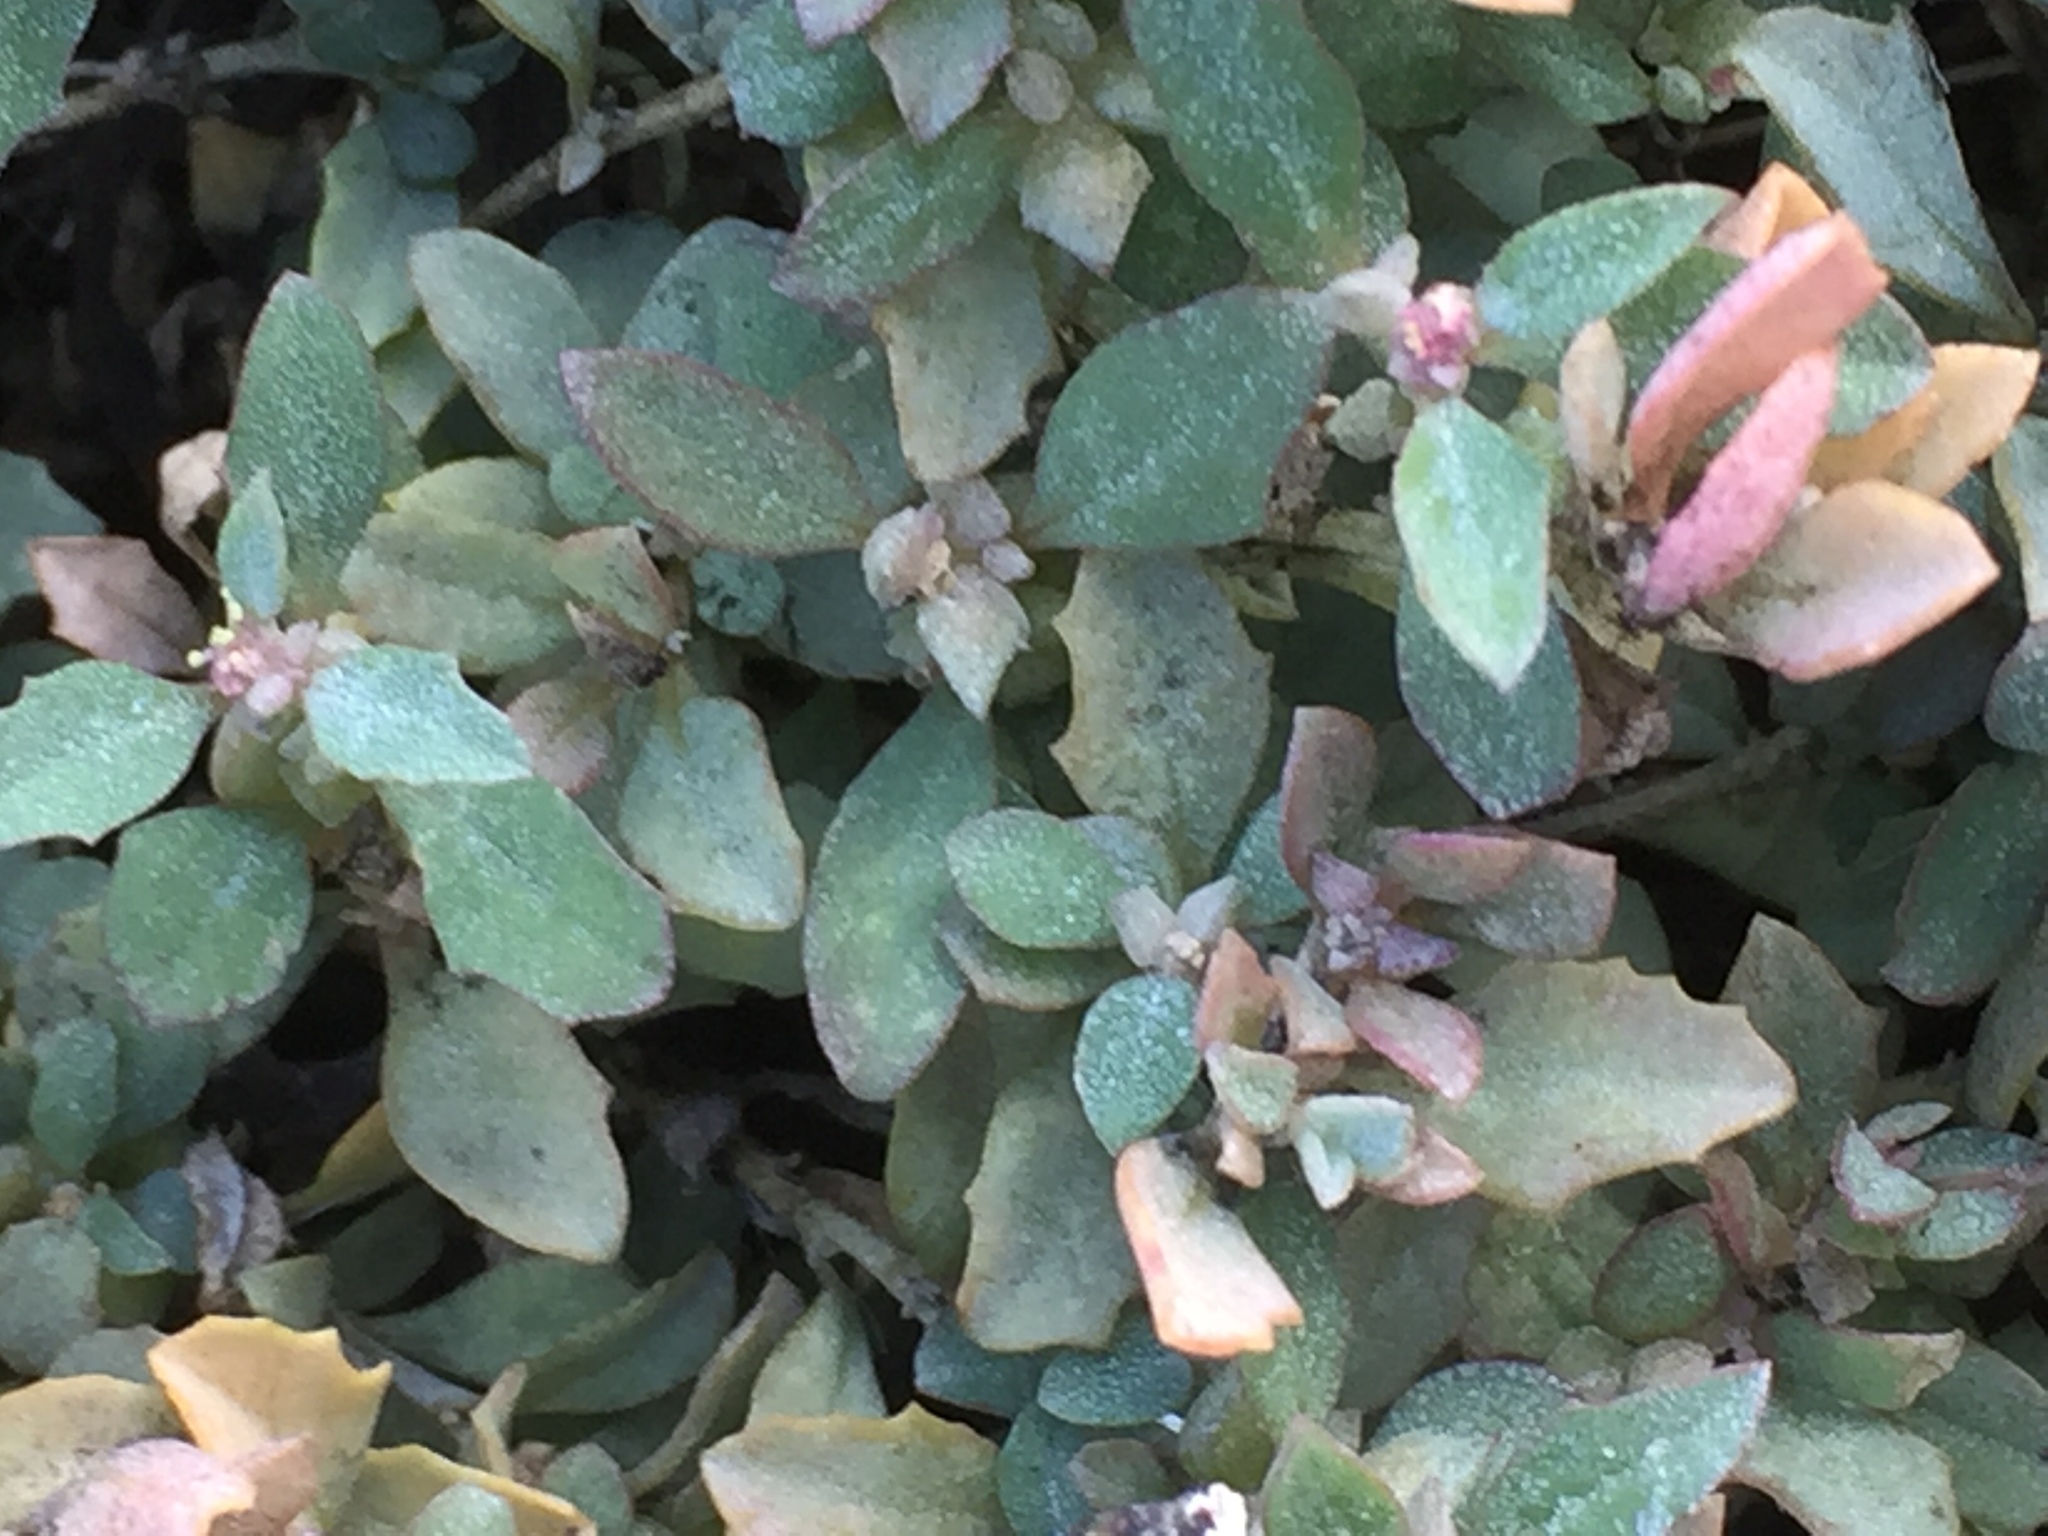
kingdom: Plantae
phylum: Tracheophyta
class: Magnoliopsida
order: Caryophyllales
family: Amaranthaceae
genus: Atriplex
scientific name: Atriplex semibaccata
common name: Australian saltbush
